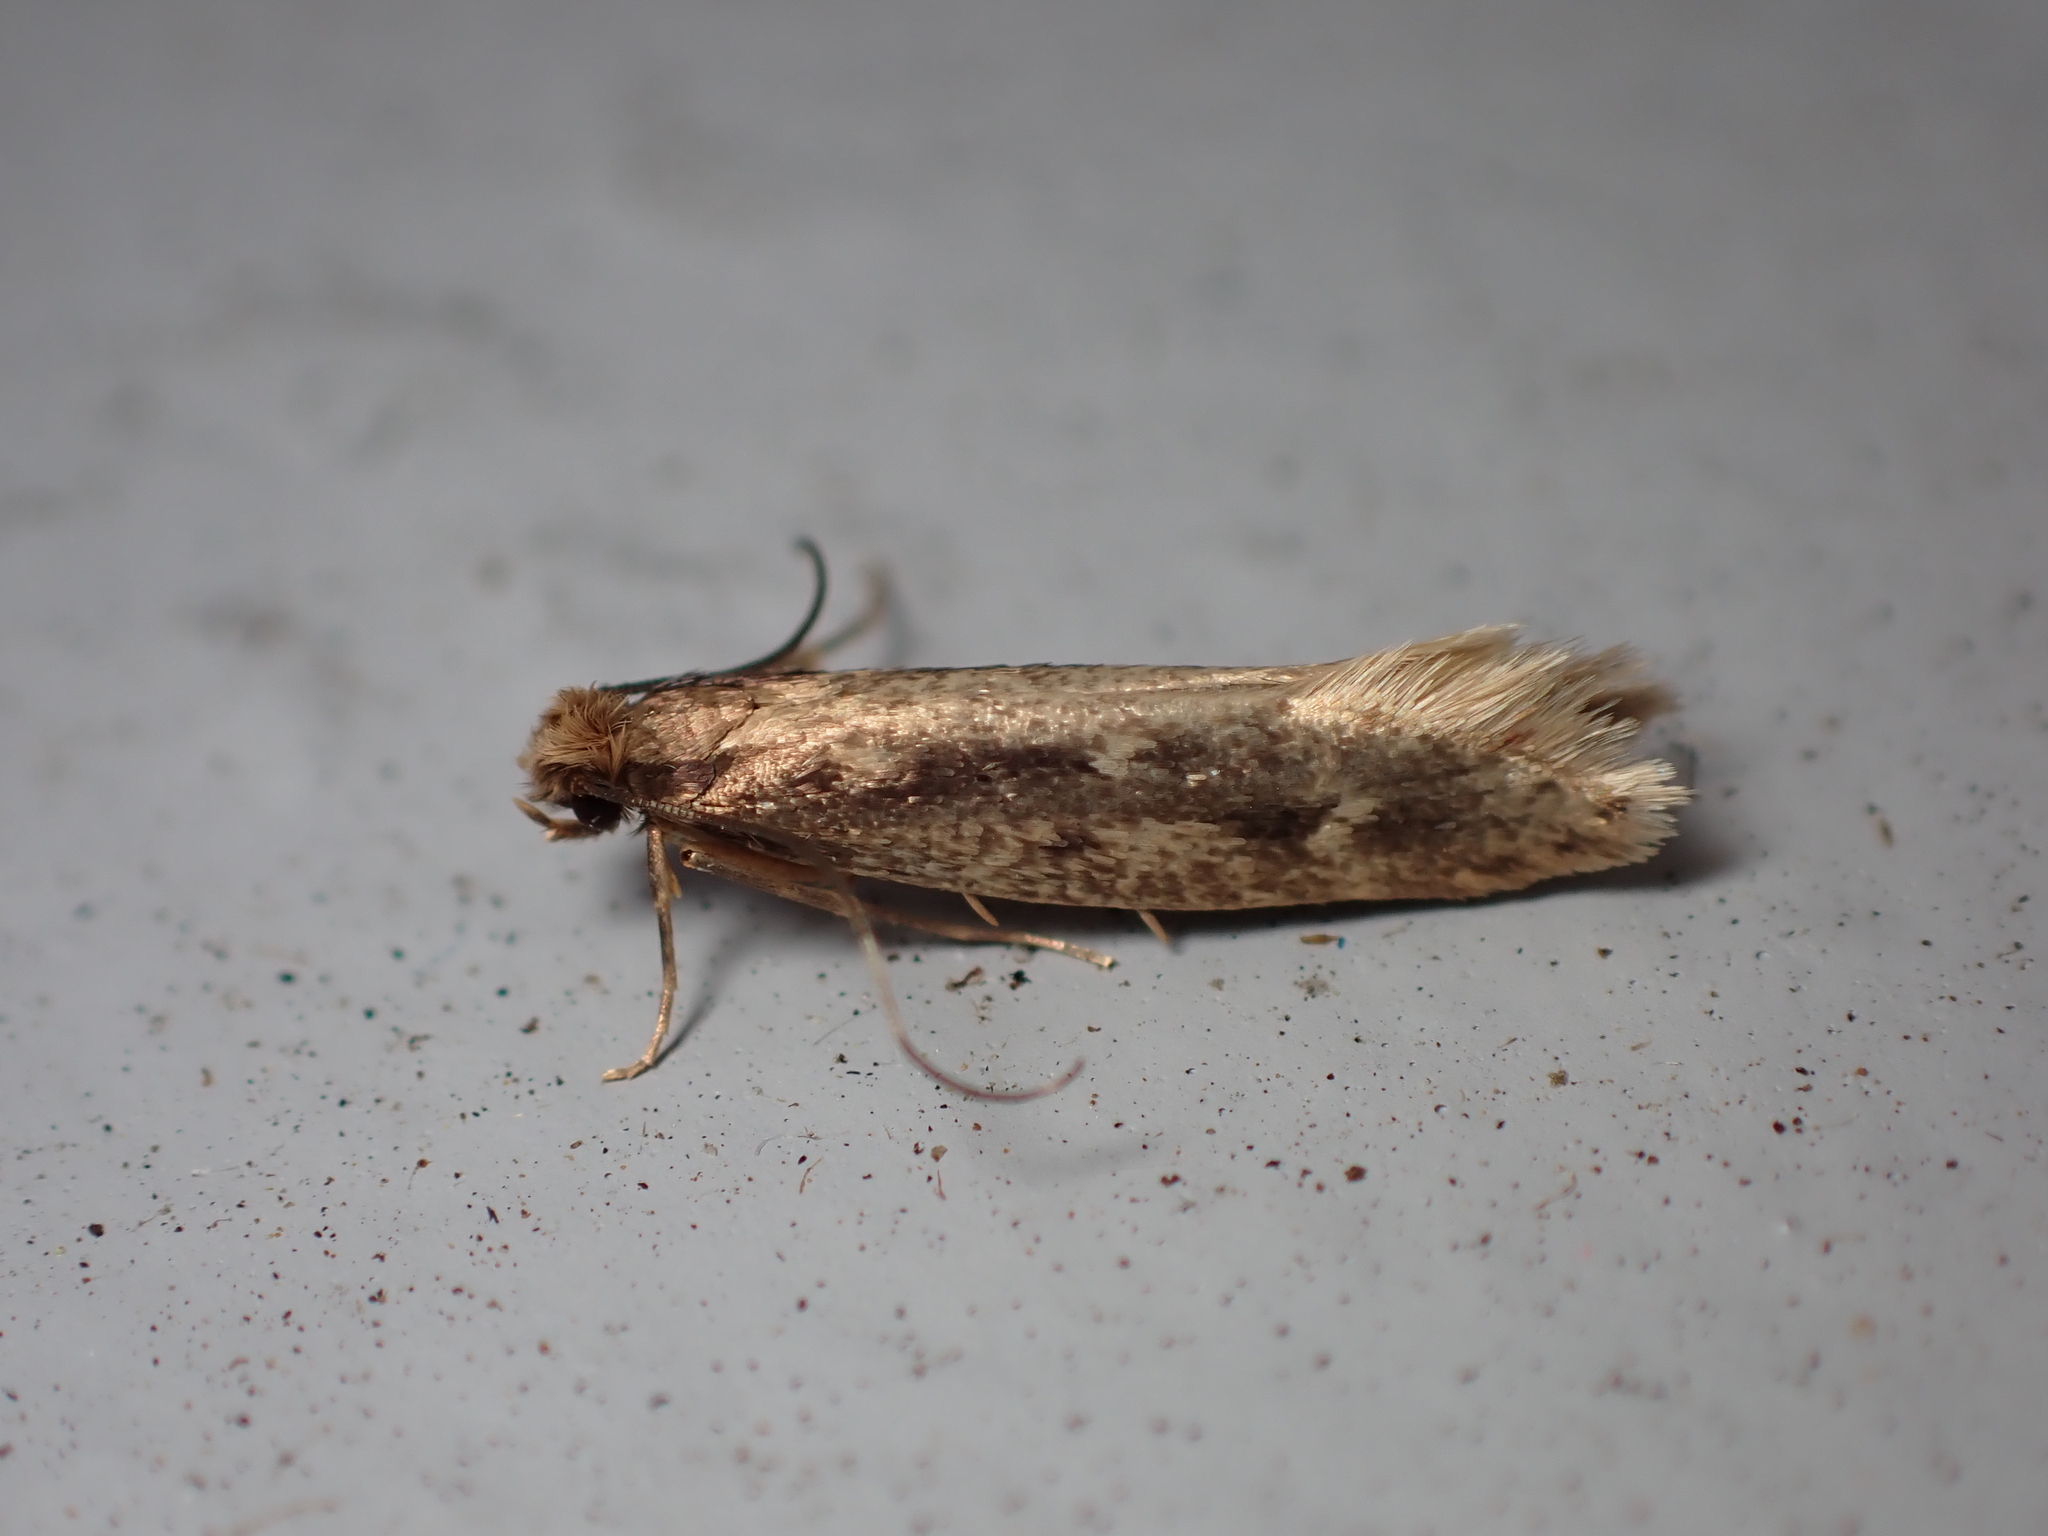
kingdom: Animalia
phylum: Arthropoda
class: Insecta
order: Lepidoptera
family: Tineidae
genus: Tinea
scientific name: Tinea pallescentella
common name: Large pale clothes moth
